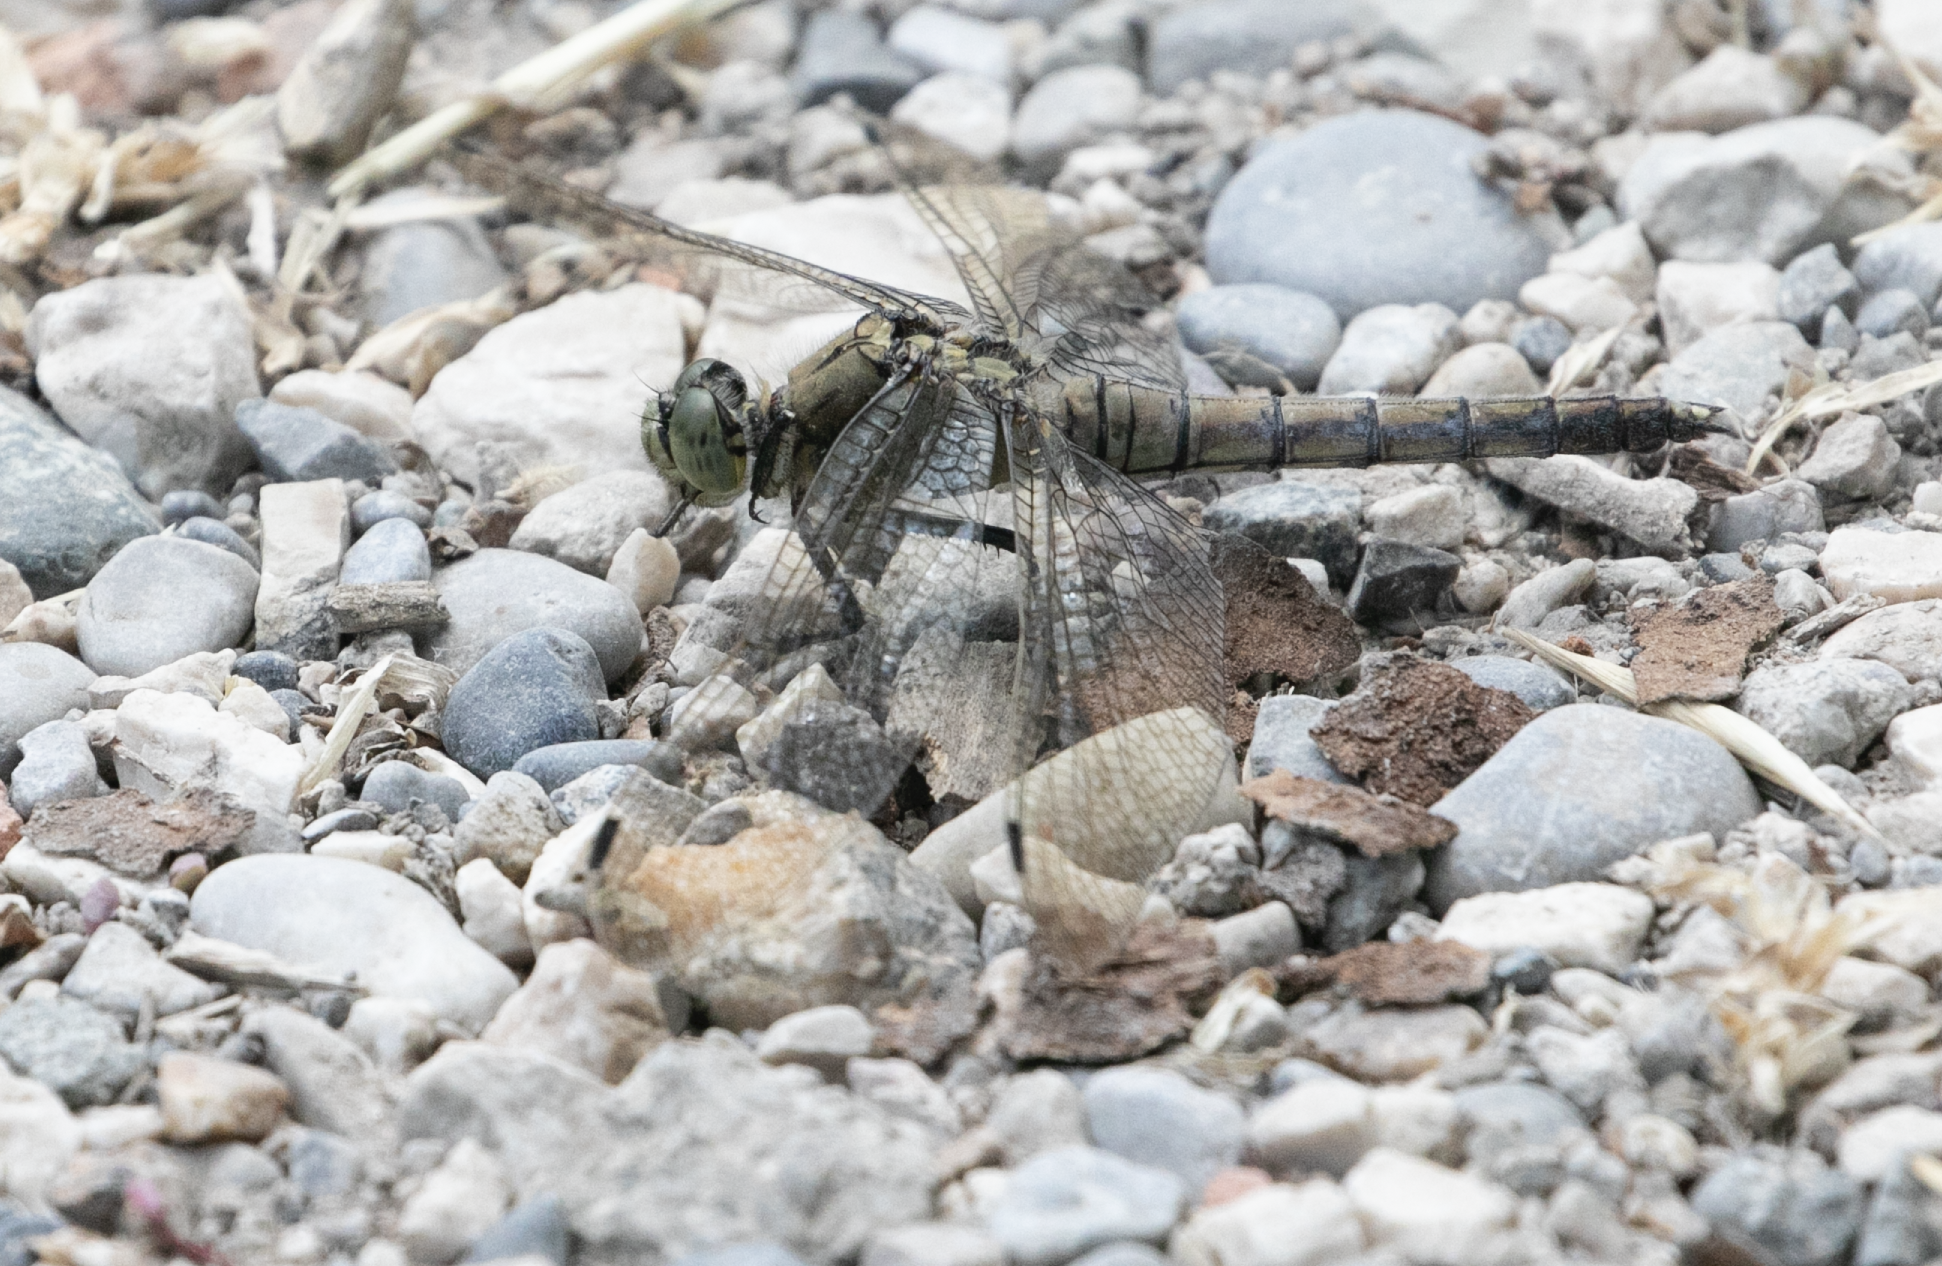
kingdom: Animalia
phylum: Arthropoda
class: Insecta
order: Odonata
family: Libellulidae
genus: Orthetrum
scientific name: Orthetrum cancellatum
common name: Black-tailed skimmer
